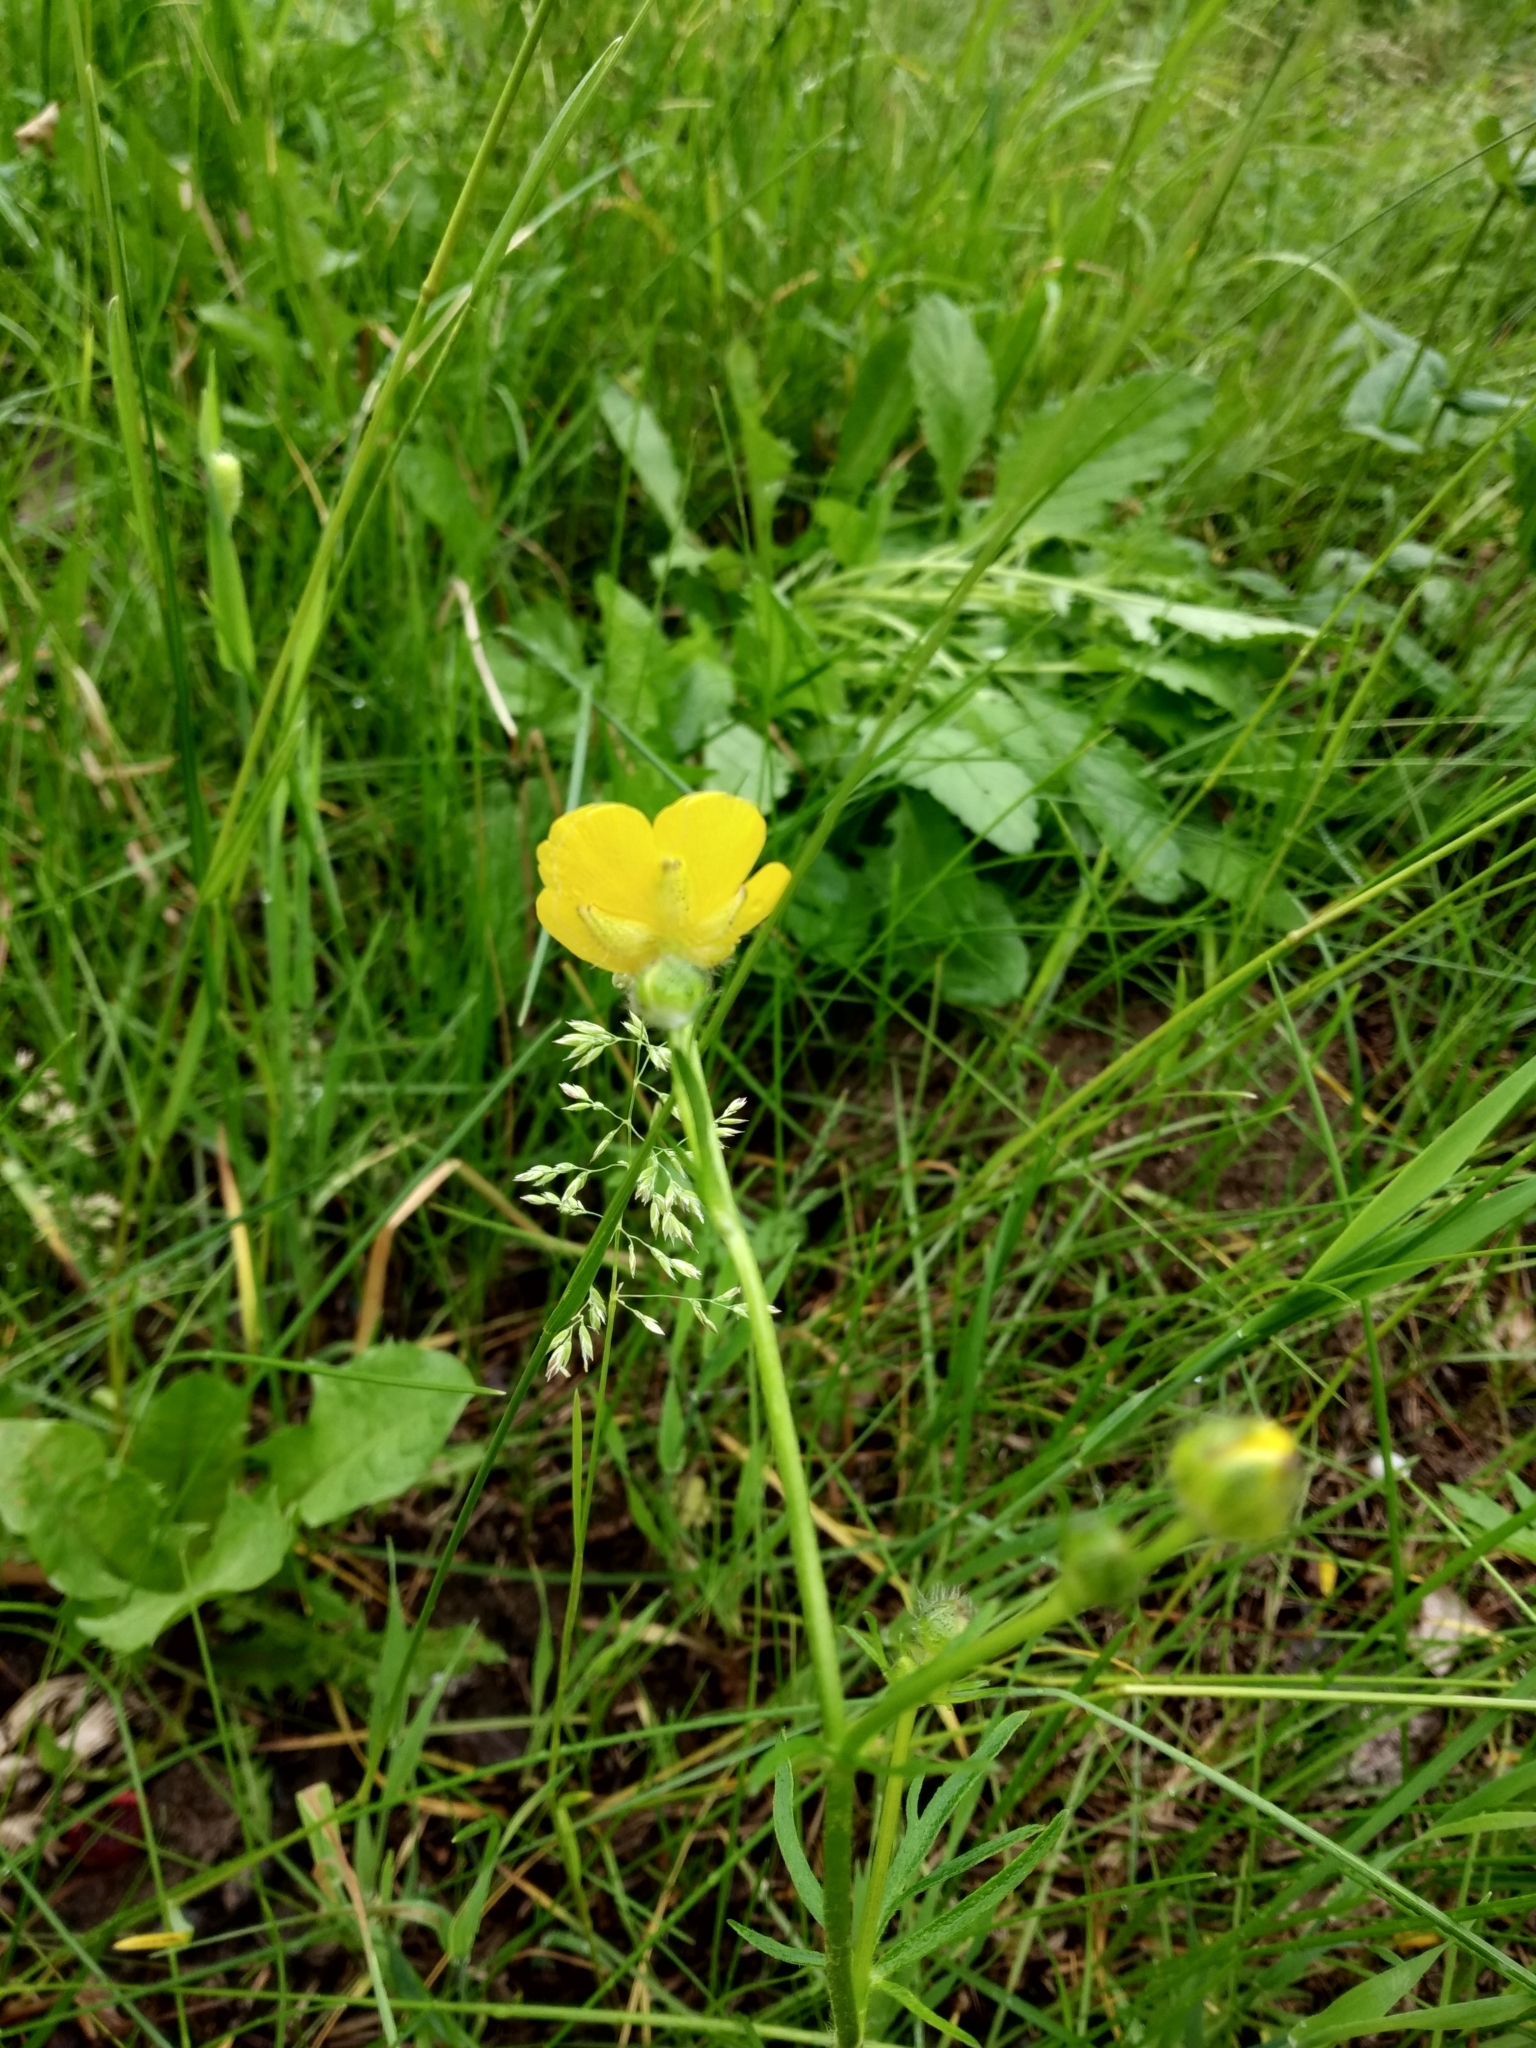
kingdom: Plantae
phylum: Tracheophyta
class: Magnoliopsida
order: Ranunculales
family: Ranunculaceae
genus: Ranunculus
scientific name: Ranunculus polyanthemos
